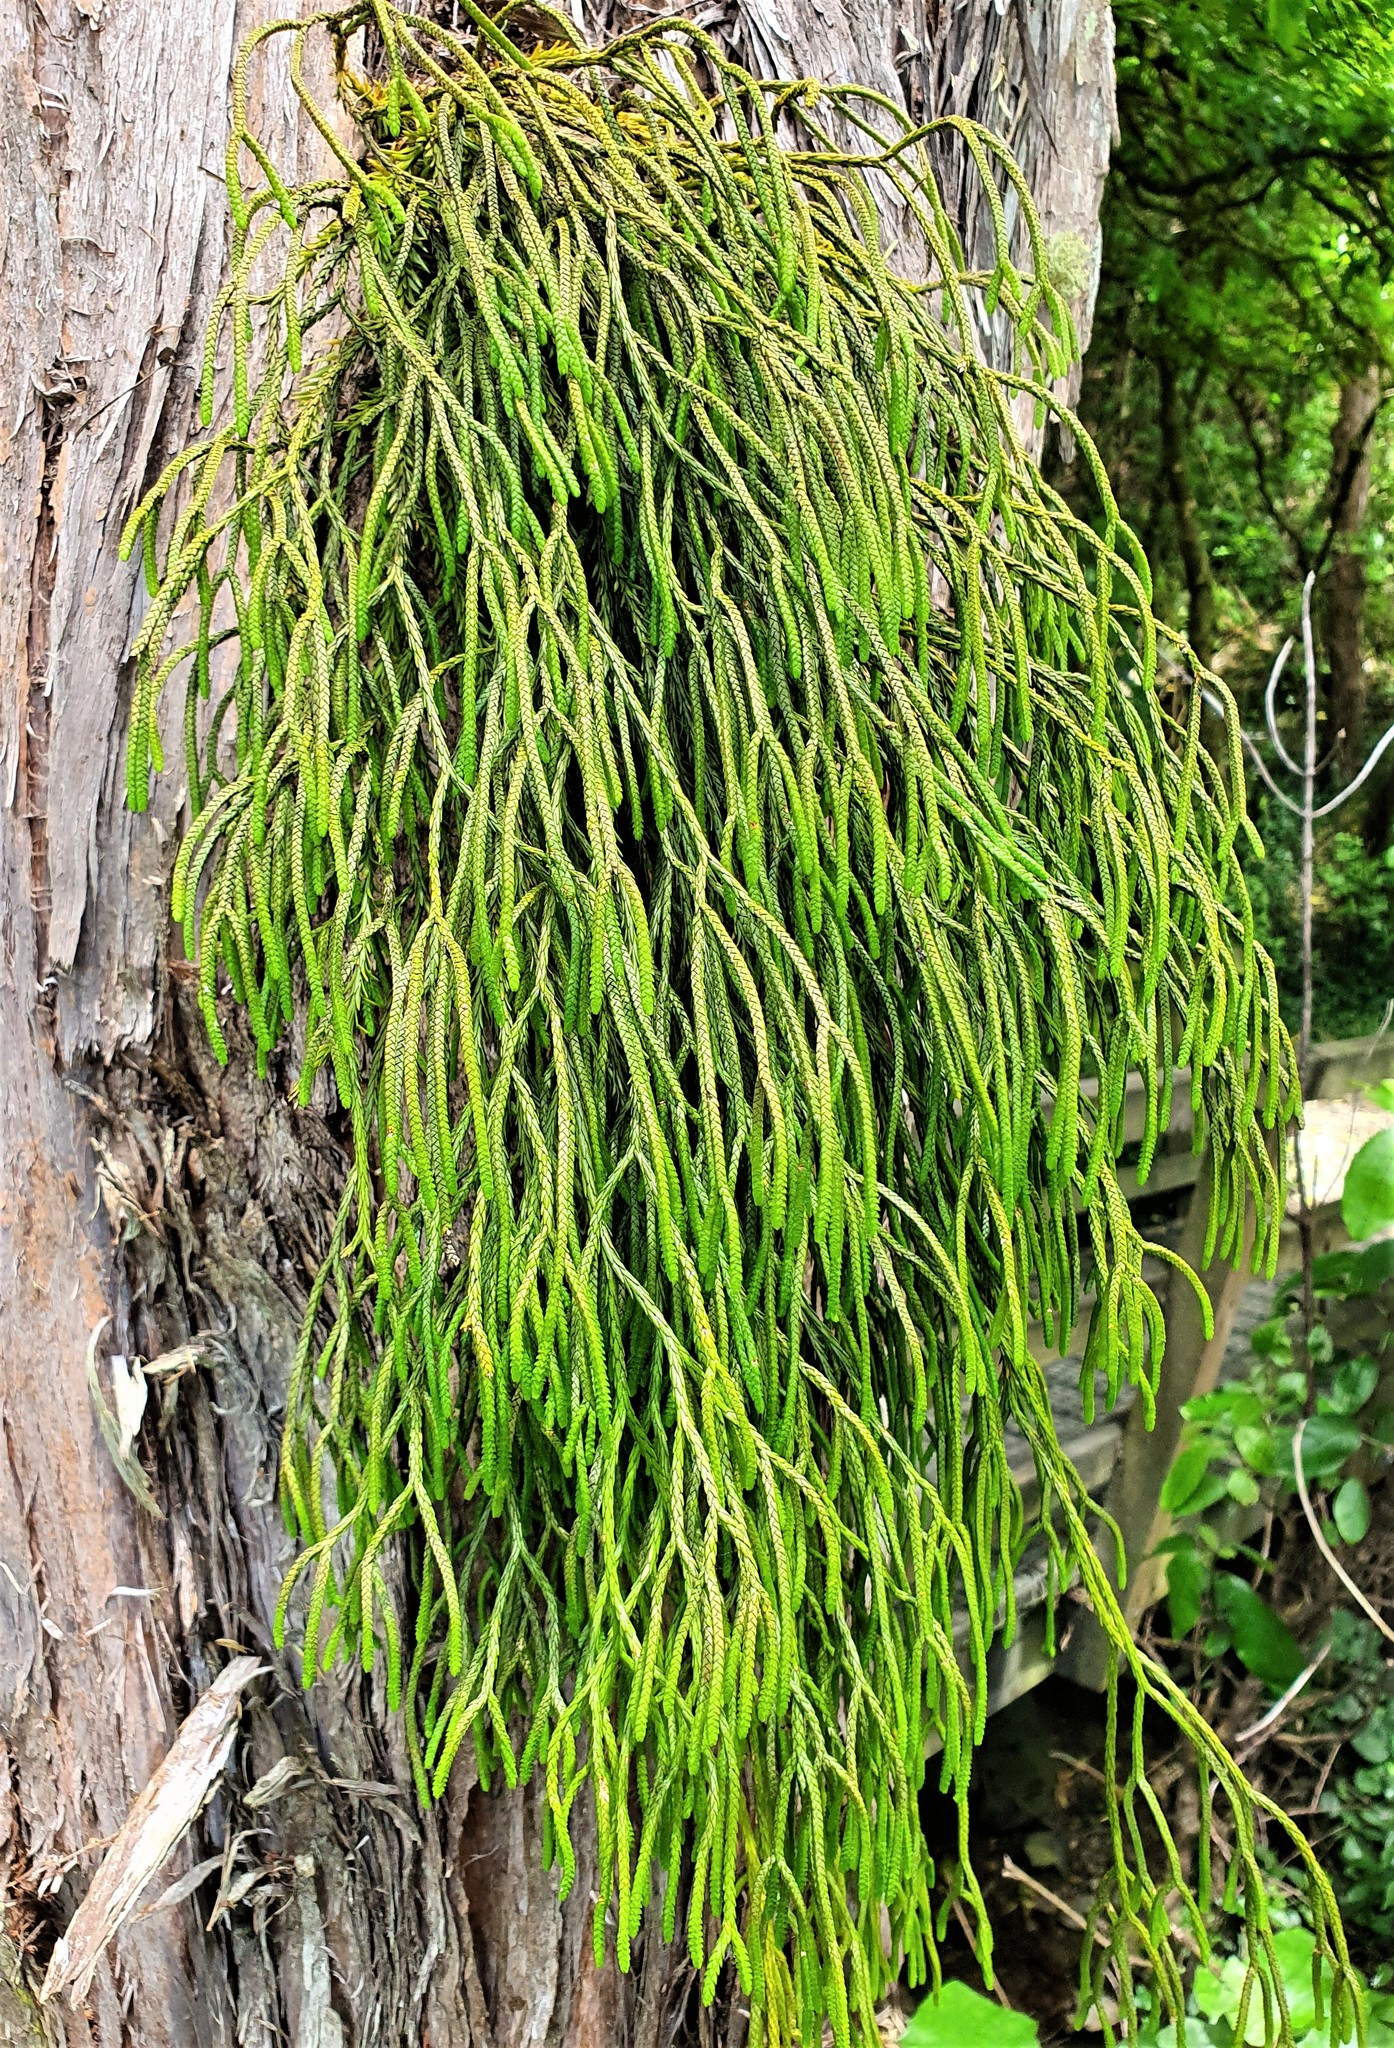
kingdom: Plantae
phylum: Tracheophyta
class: Lycopodiopsida
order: Lycopodiales
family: Lycopodiaceae
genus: Phlegmariurus
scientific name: Phlegmariurus billardierei
